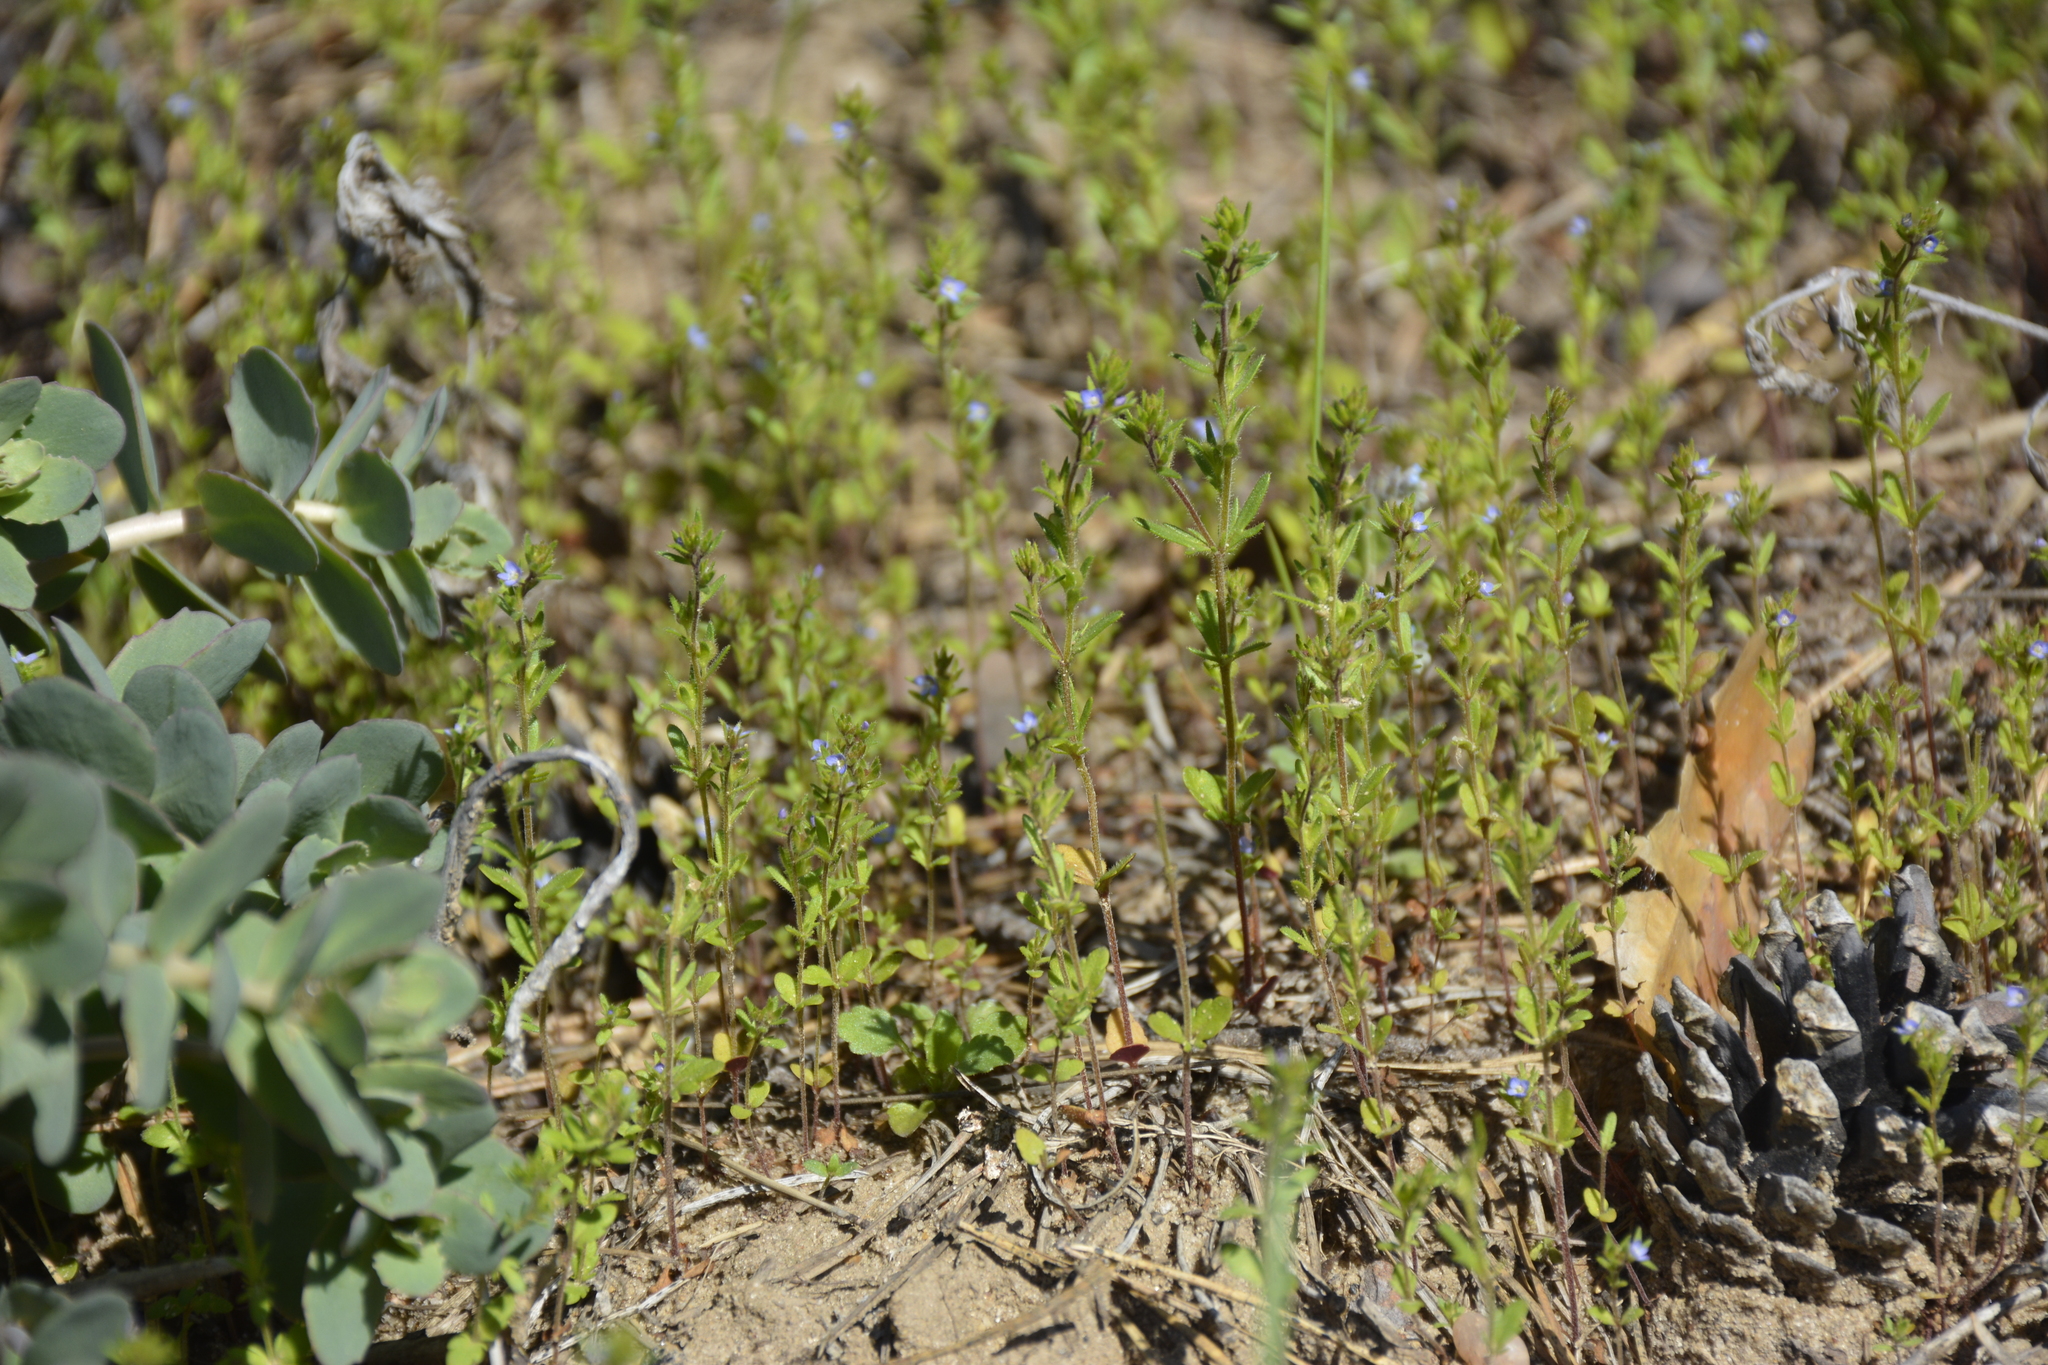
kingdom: Plantae
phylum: Tracheophyta
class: Magnoliopsida
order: Lamiales
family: Plantaginaceae
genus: Veronica
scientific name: Veronica verna
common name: Spring speedwell
